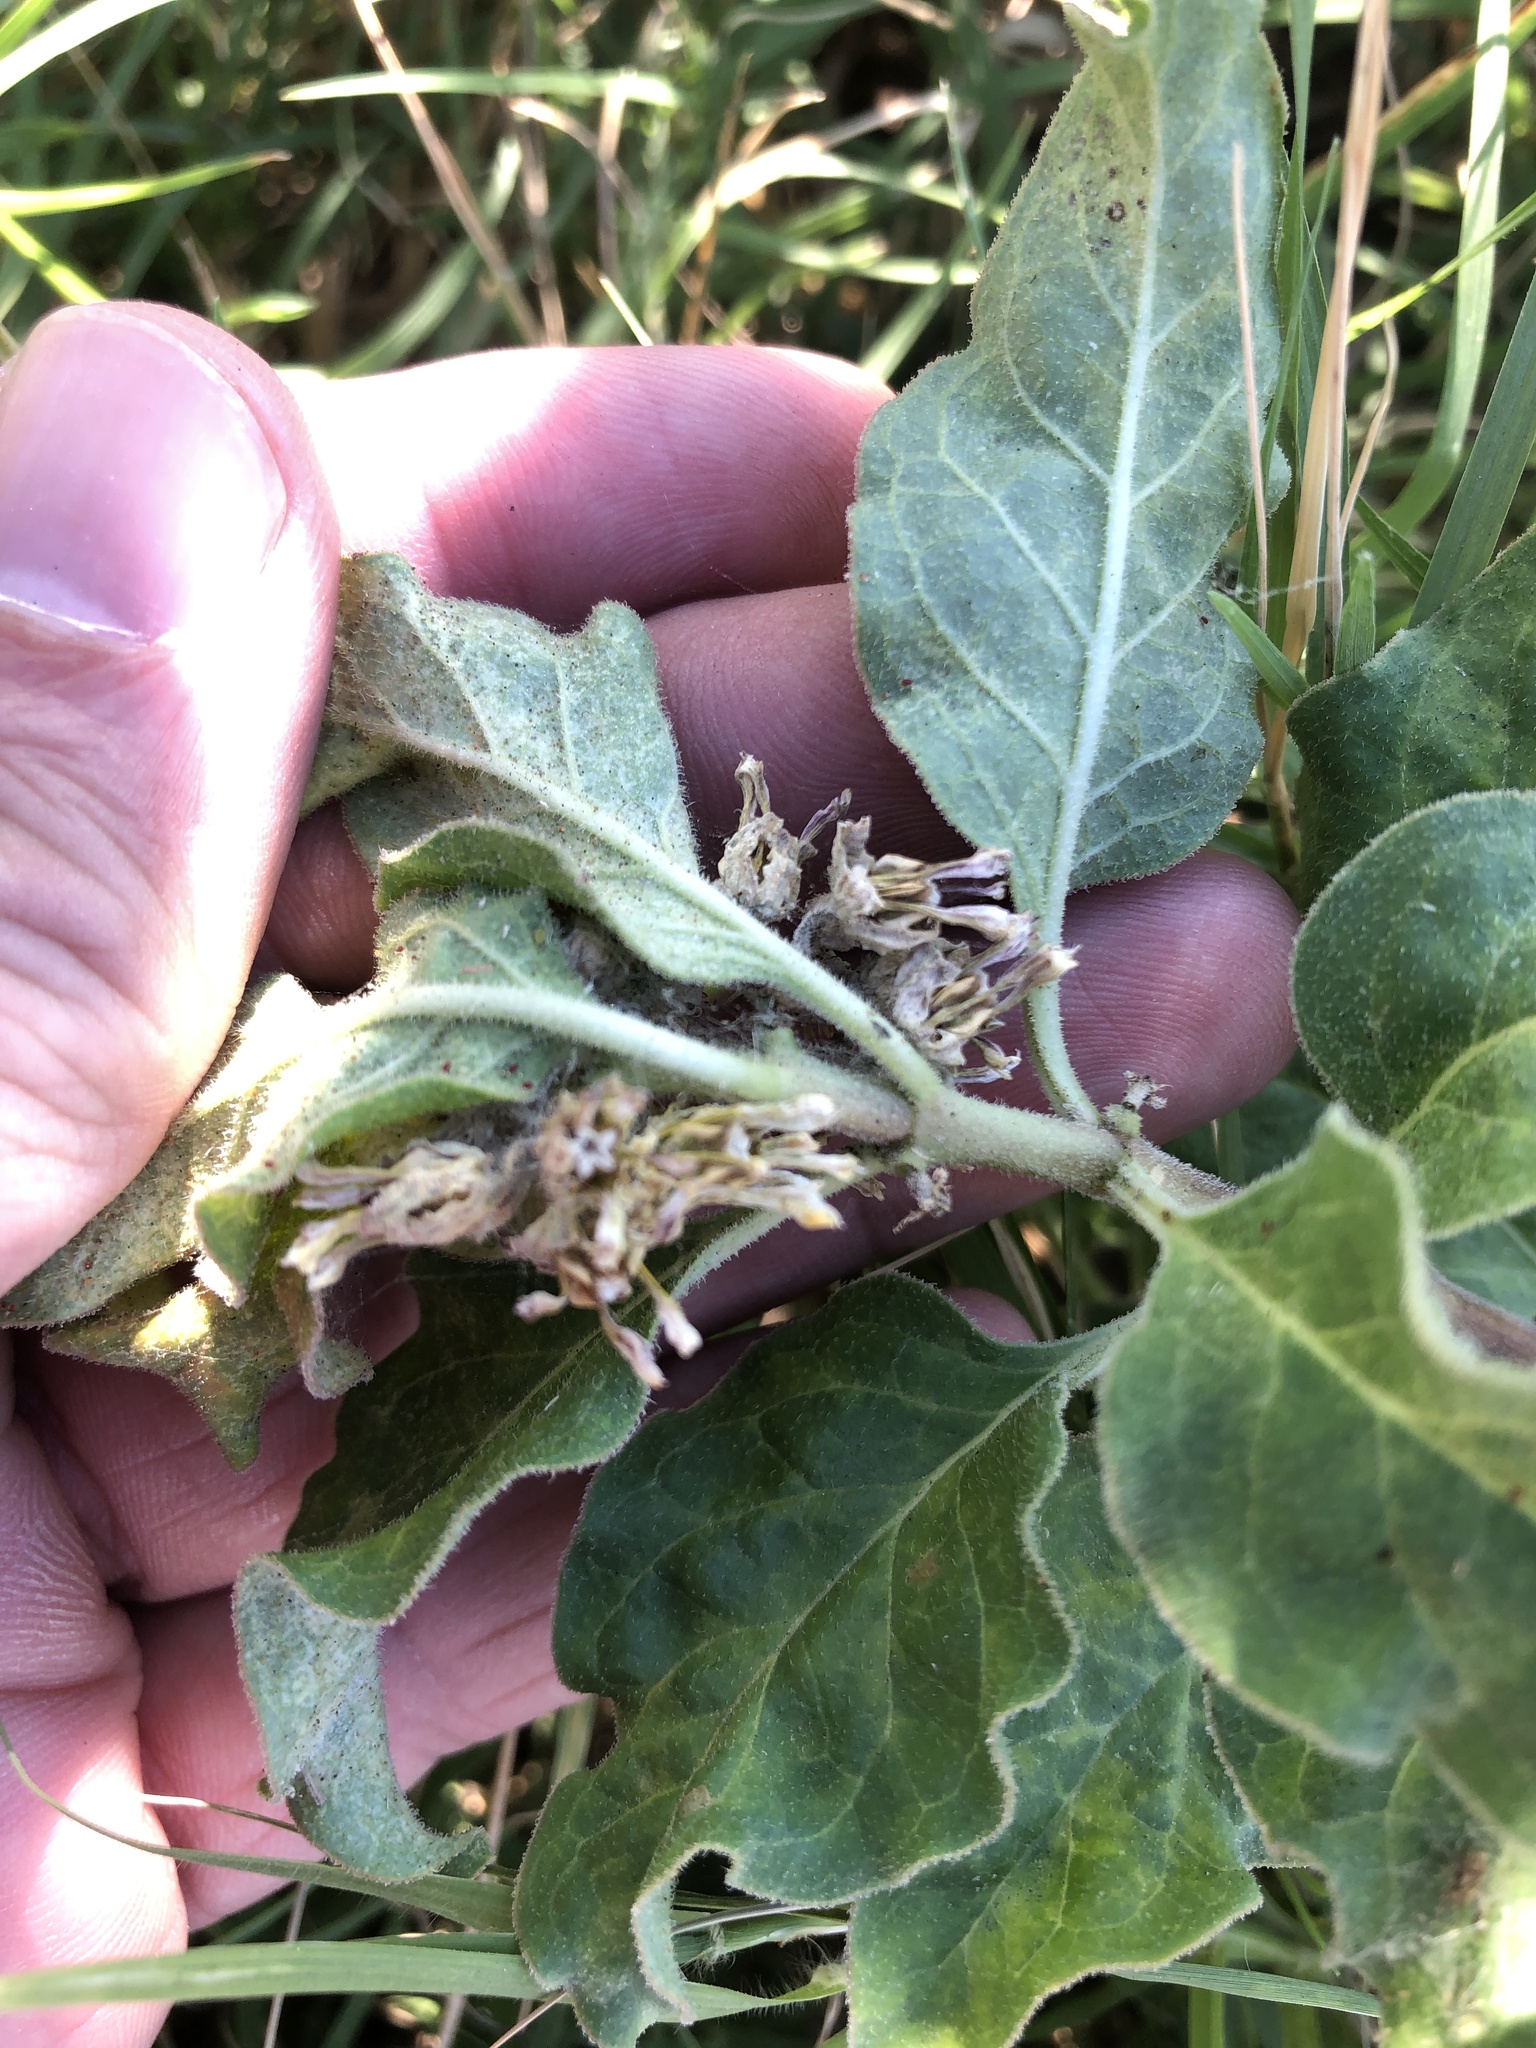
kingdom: Plantae
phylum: Tracheophyta
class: Magnoliopsida
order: Gentianales
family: Apocynaceae
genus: Asclepias
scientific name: Asclepias oenotheroides
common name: Zizotes milkweed
